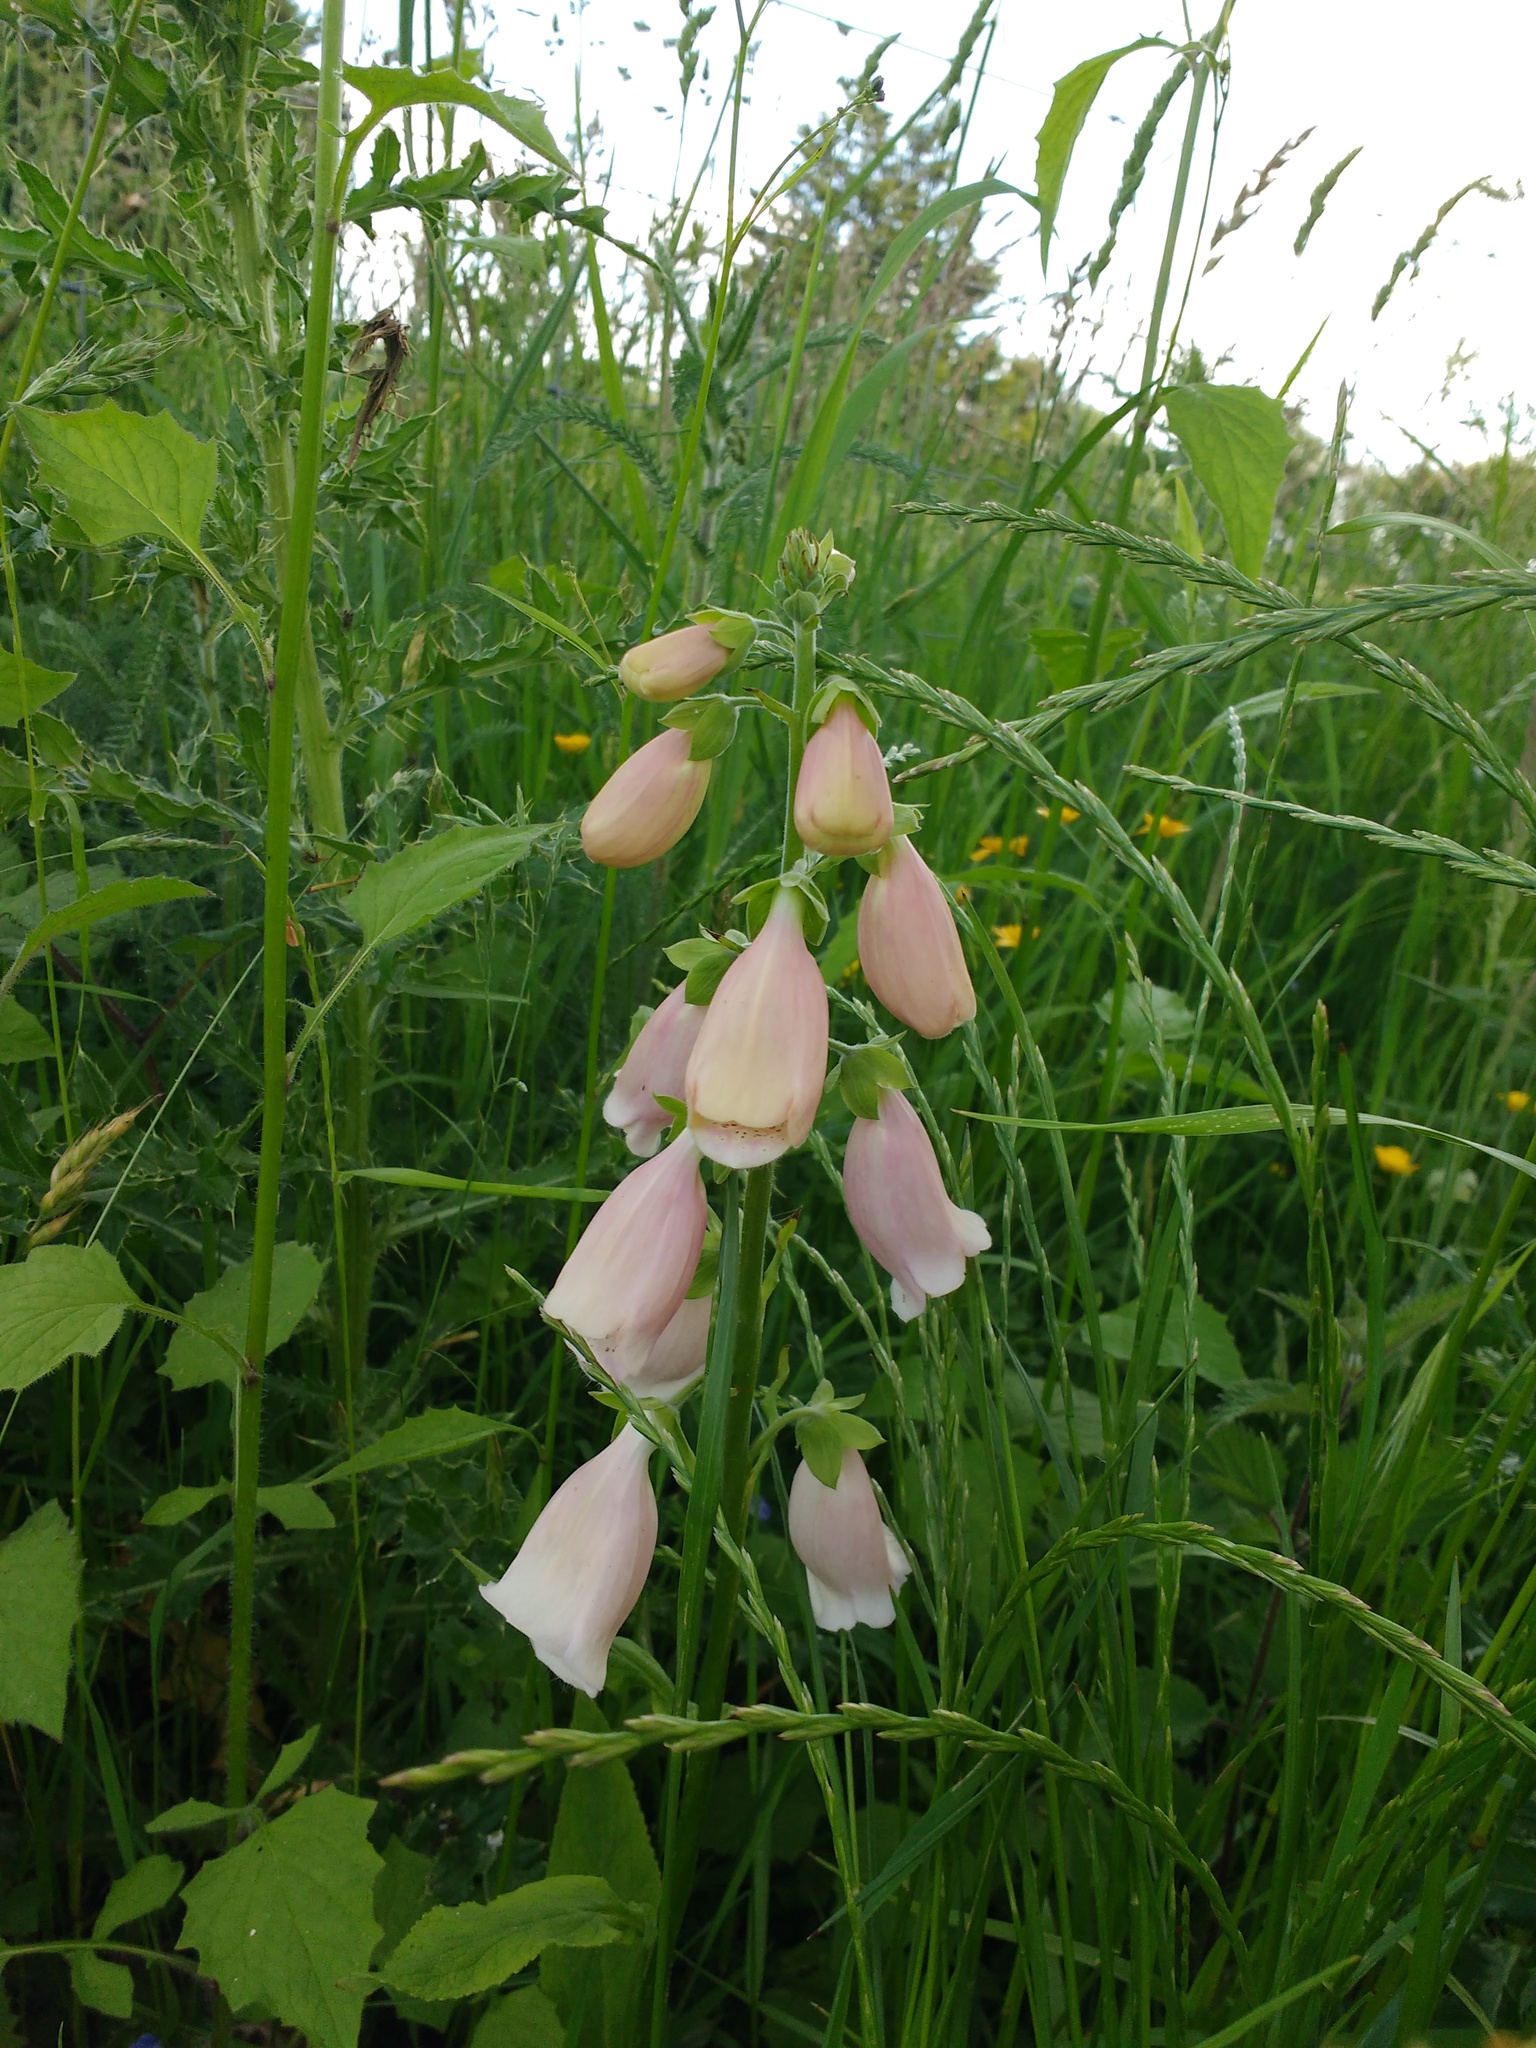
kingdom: Plantae
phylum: Tracheophyta
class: Magnoliopsida
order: Lamiales
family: Plantaginaceae
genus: Digitalis
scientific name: Digitalis purpurea
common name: Foxglove
